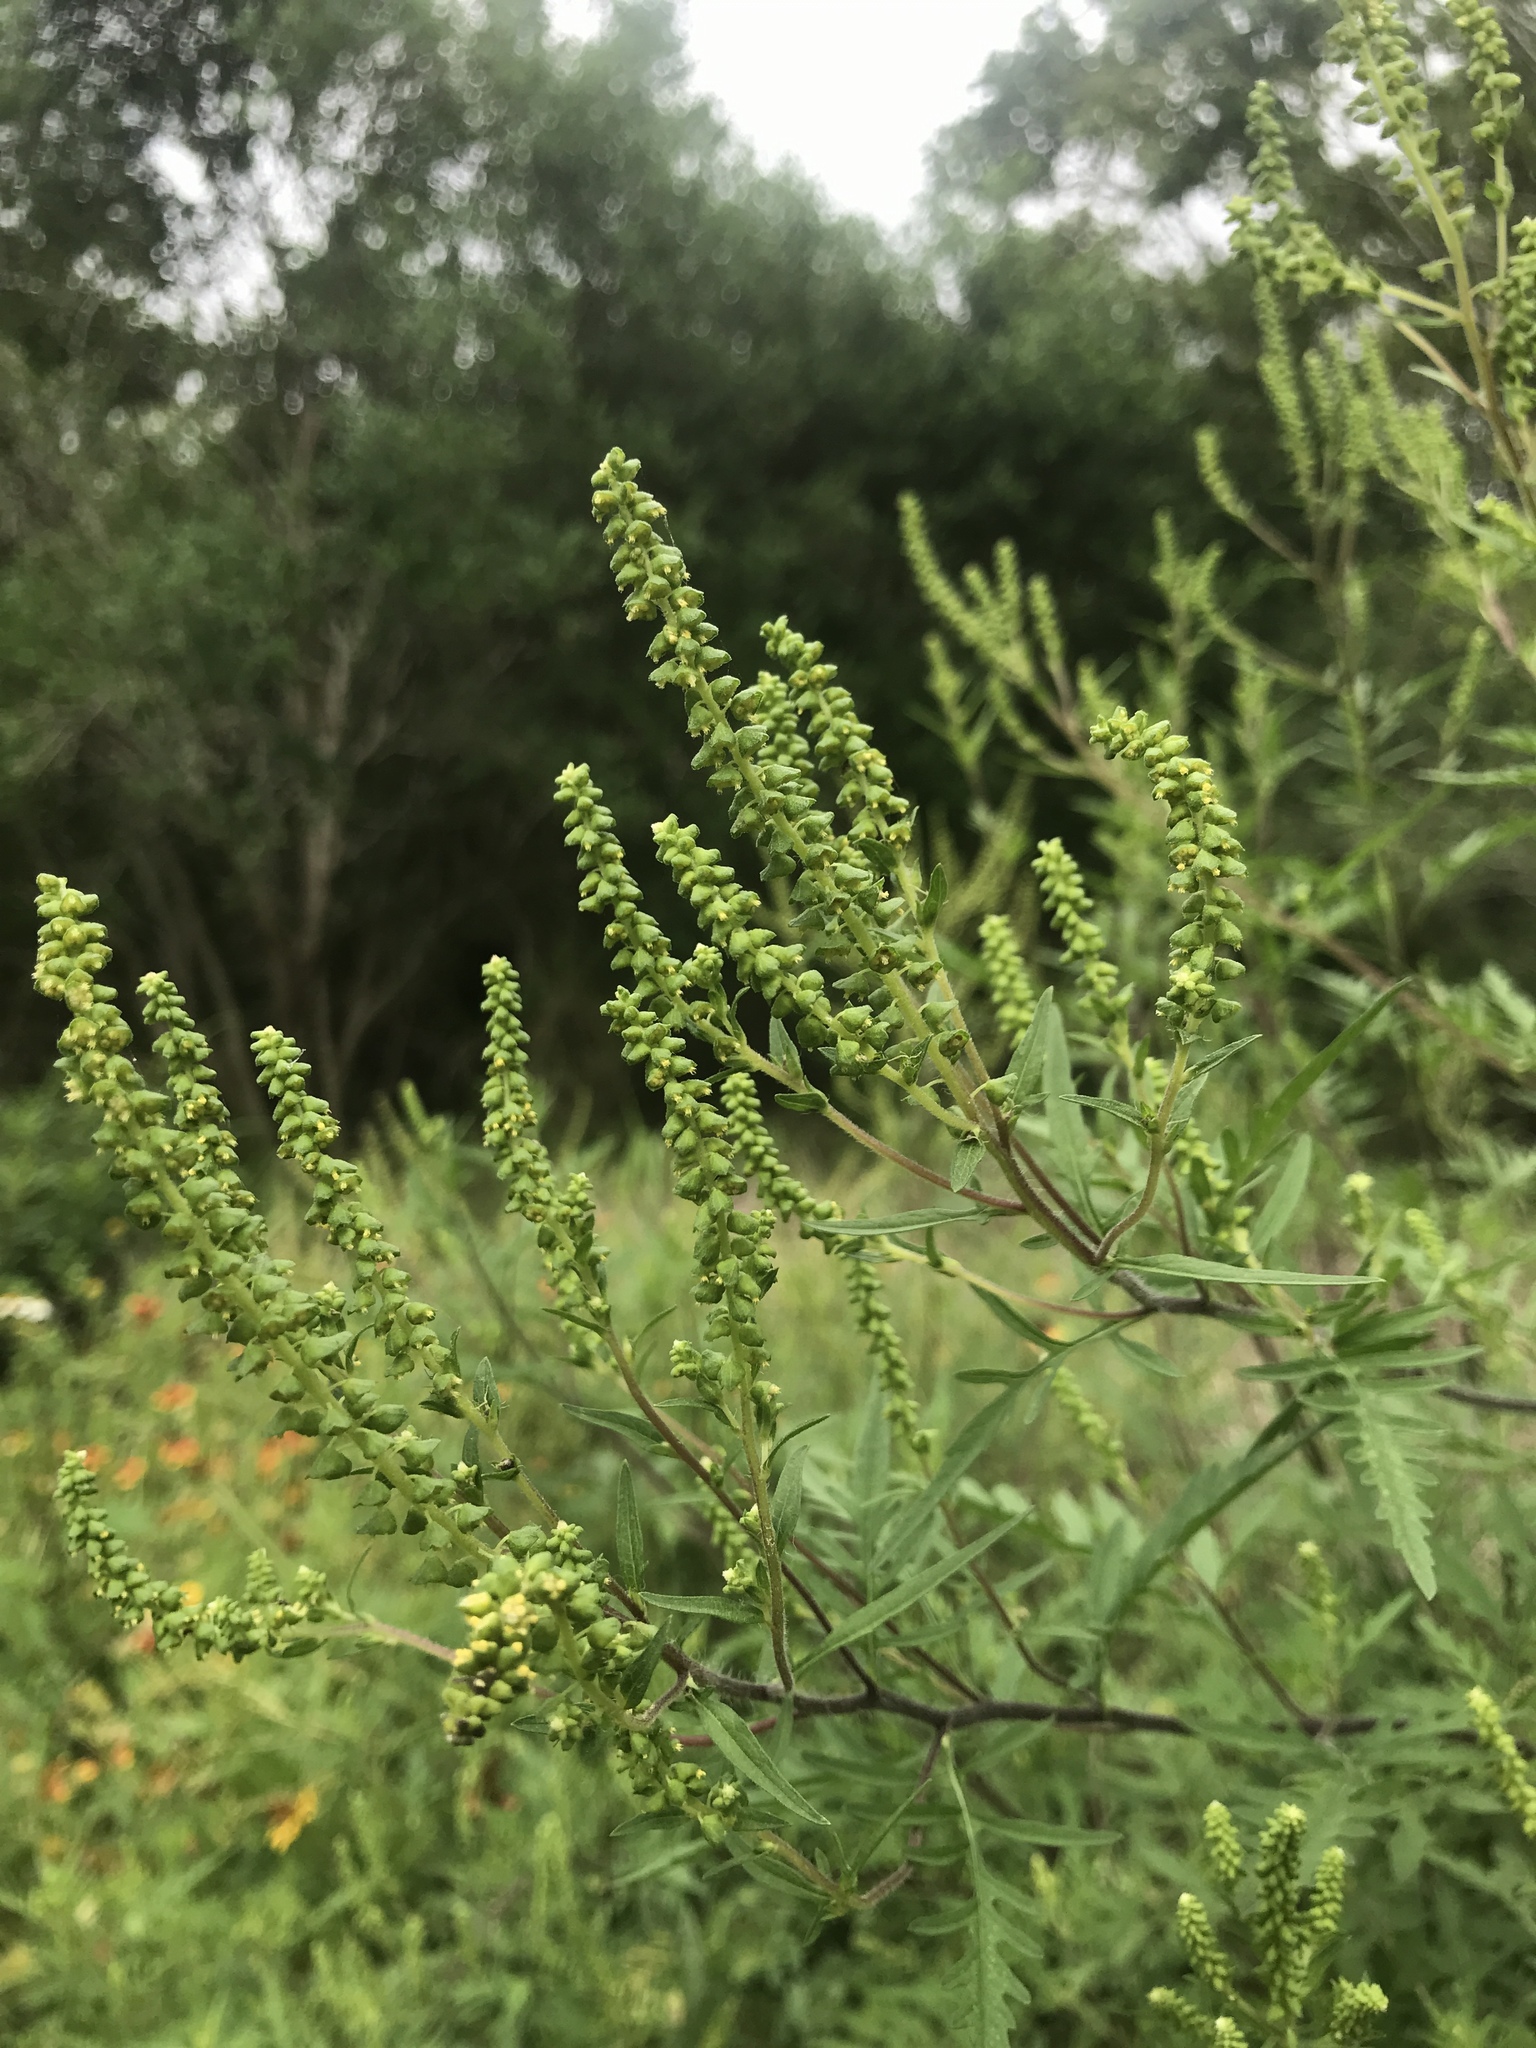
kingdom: Plantae
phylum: Tracheophyta
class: Magnoliopsida
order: Asterales
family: Asteraceae
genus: Ambrosia
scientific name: Ambrosia artemisiifolia
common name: Annual ragweed
